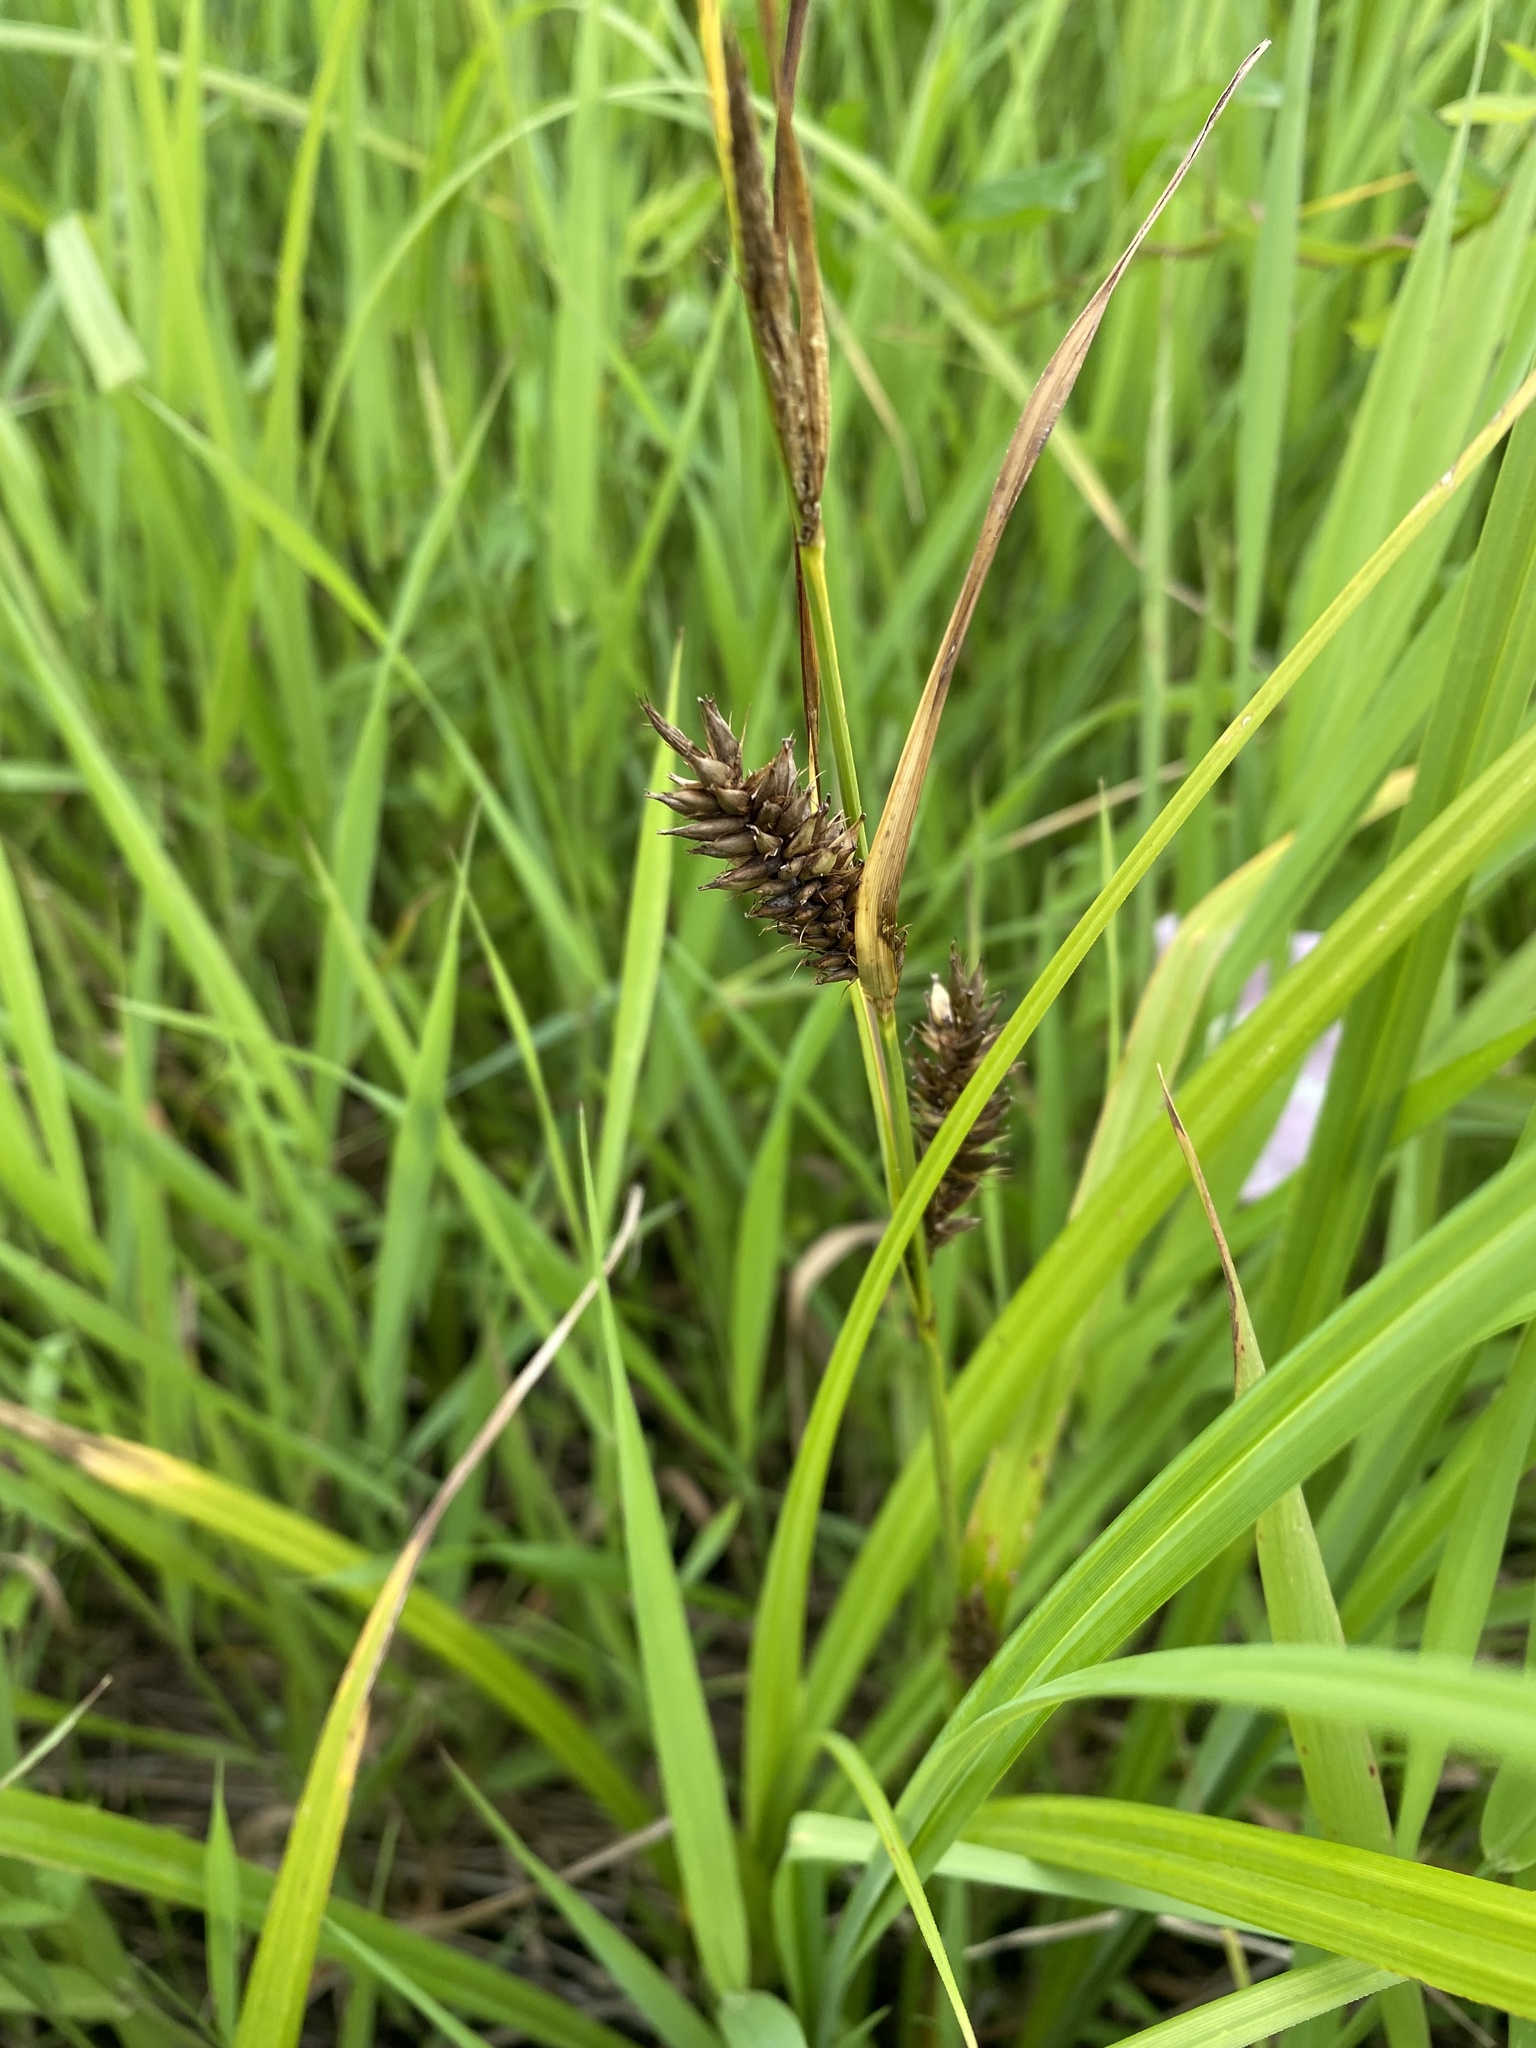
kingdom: Plantae
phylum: Tracheophyta
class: Liliopsida
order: Poales
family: Cyperaceae
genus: Carex
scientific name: Carex lacustris
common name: Common lake sedge
